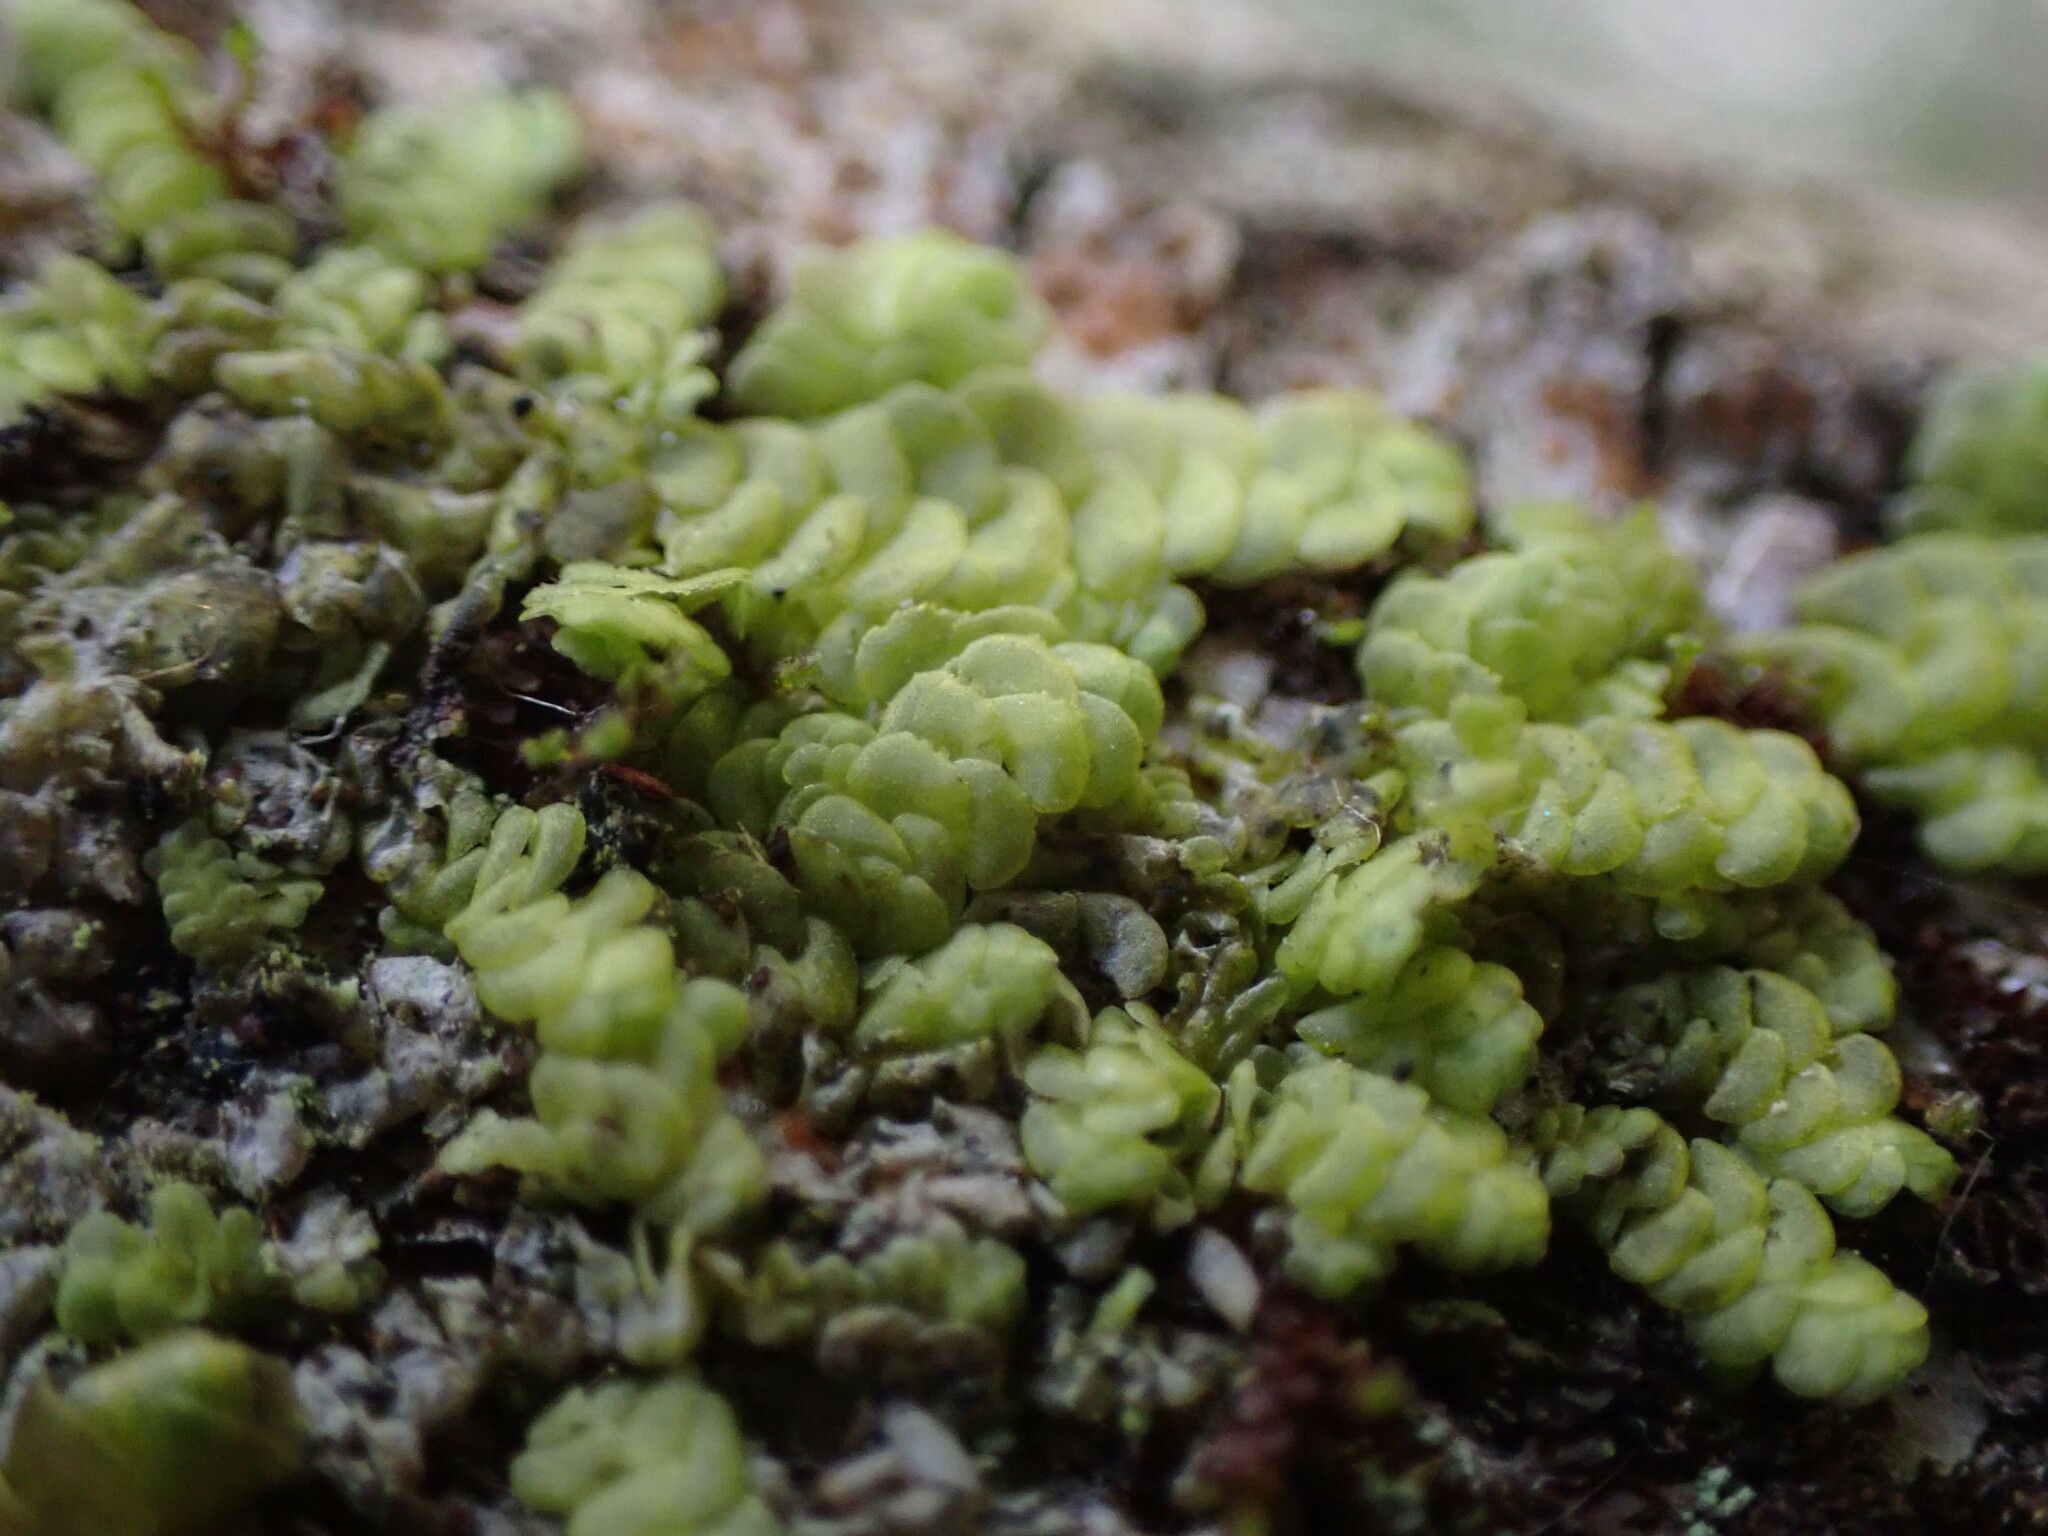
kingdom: Plantae
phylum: Marchantiophyta
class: Jungermanniopsida
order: Porellales
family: Radulaceae
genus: Radula
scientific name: Radula complanata
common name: Flat-leaved scalewort
